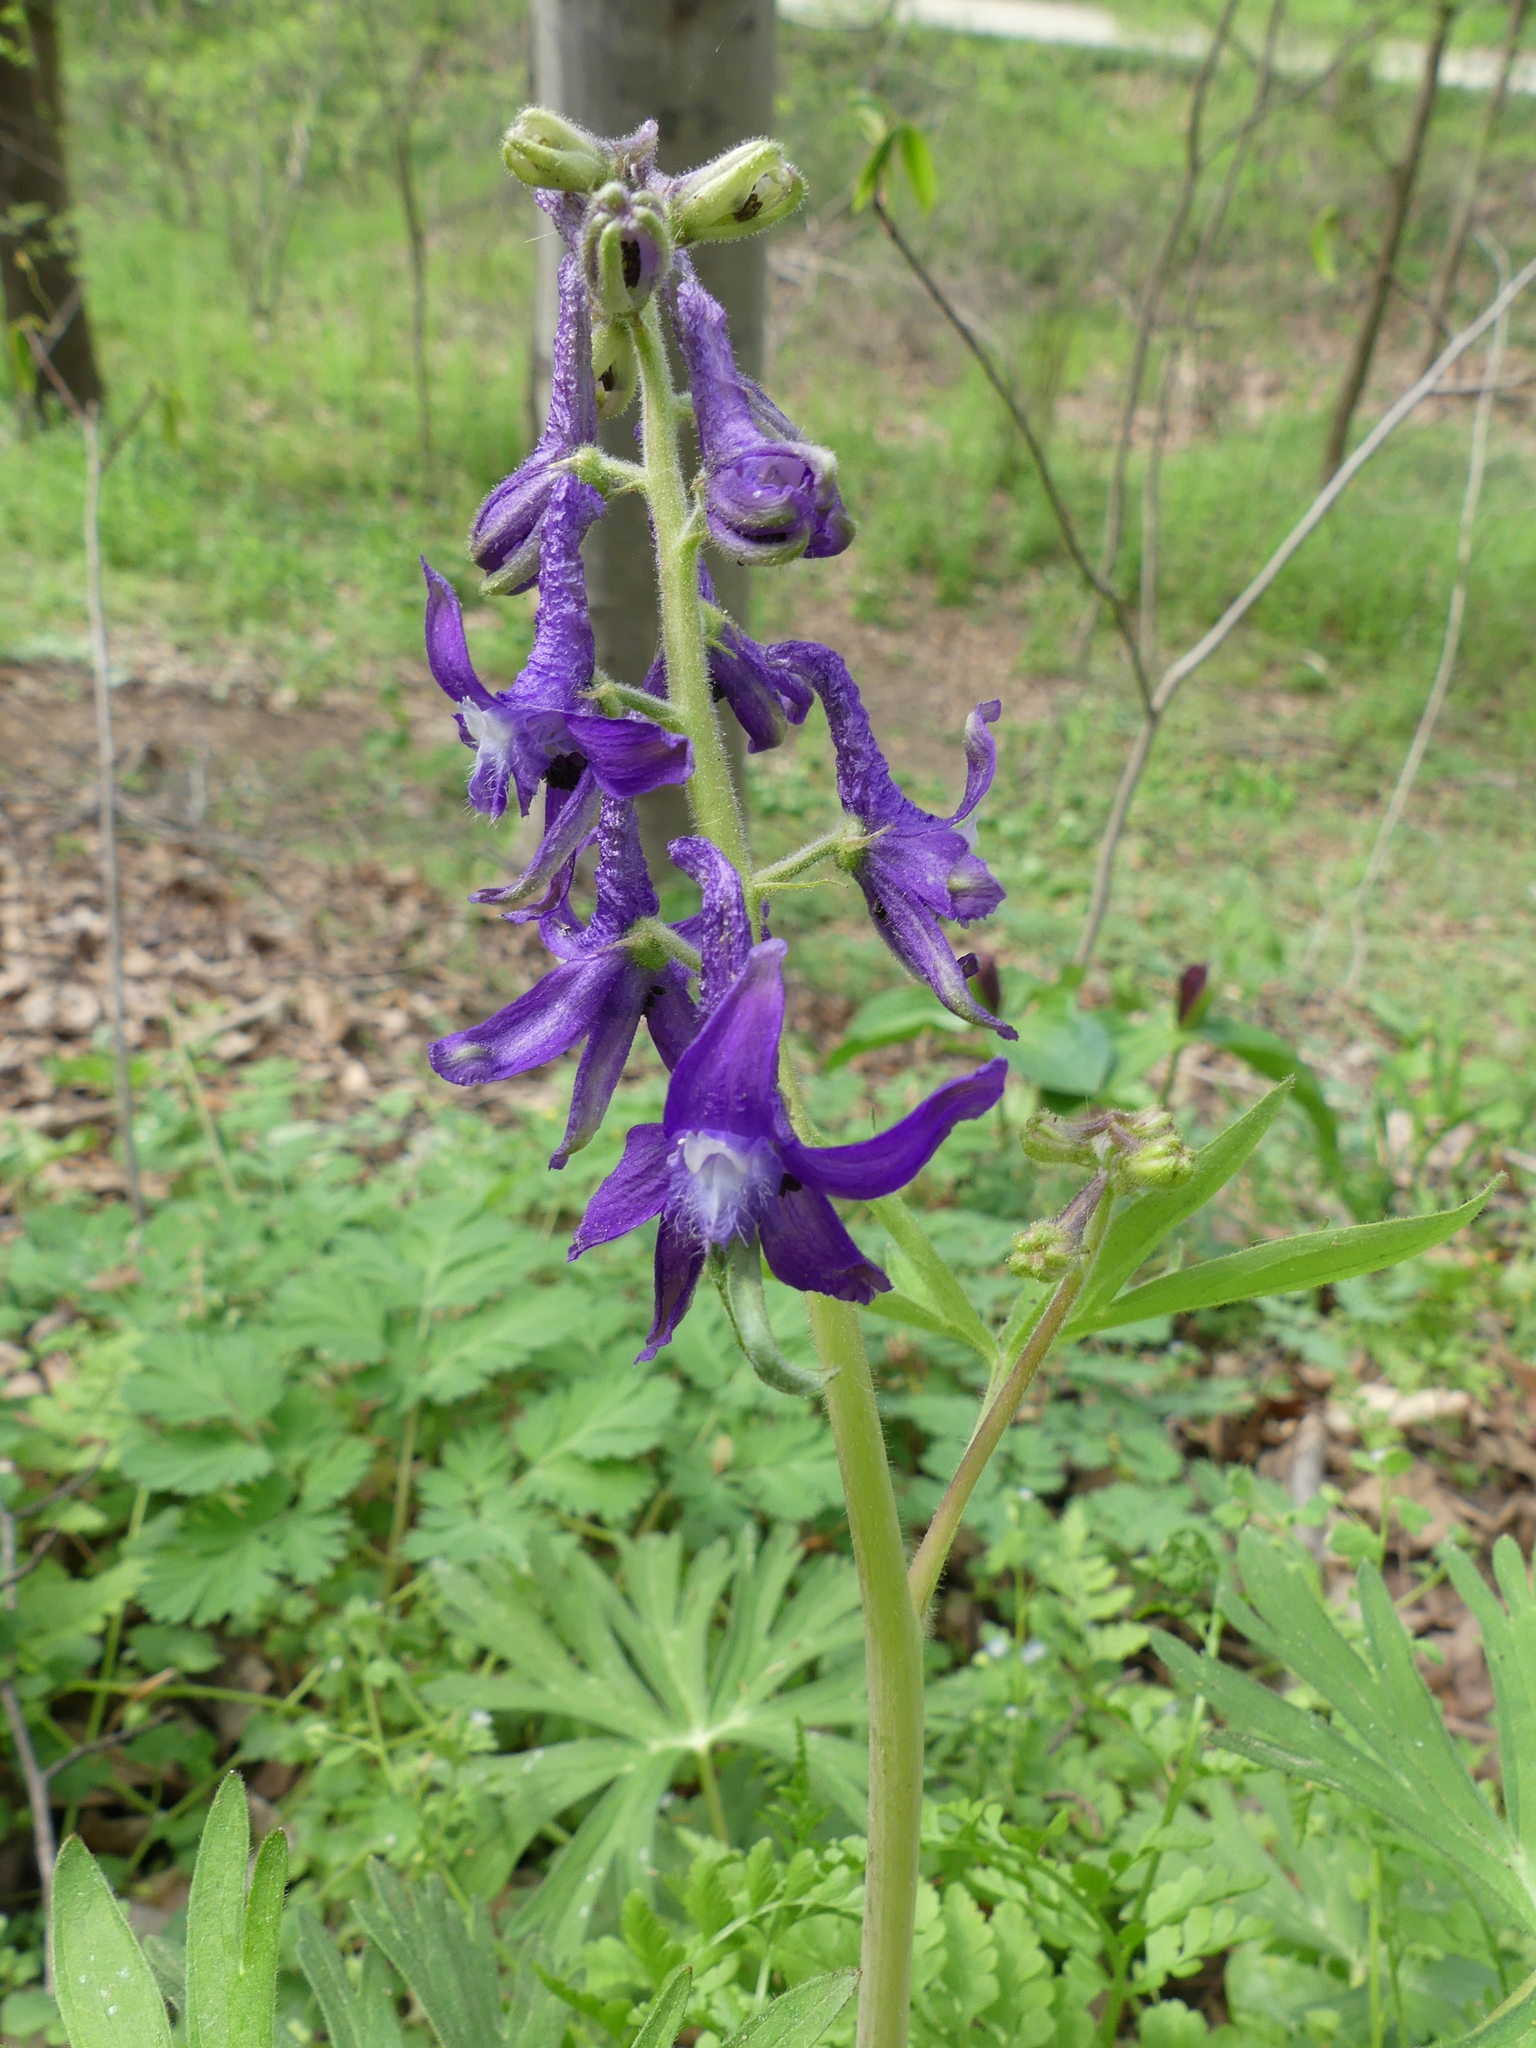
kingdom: Plantae
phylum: Tracheophyta
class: Magnoliopsida
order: Ranunculales
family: Ranunculaceae
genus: Delphinium
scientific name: Delphinium tricorne
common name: Dwarf larkspur
